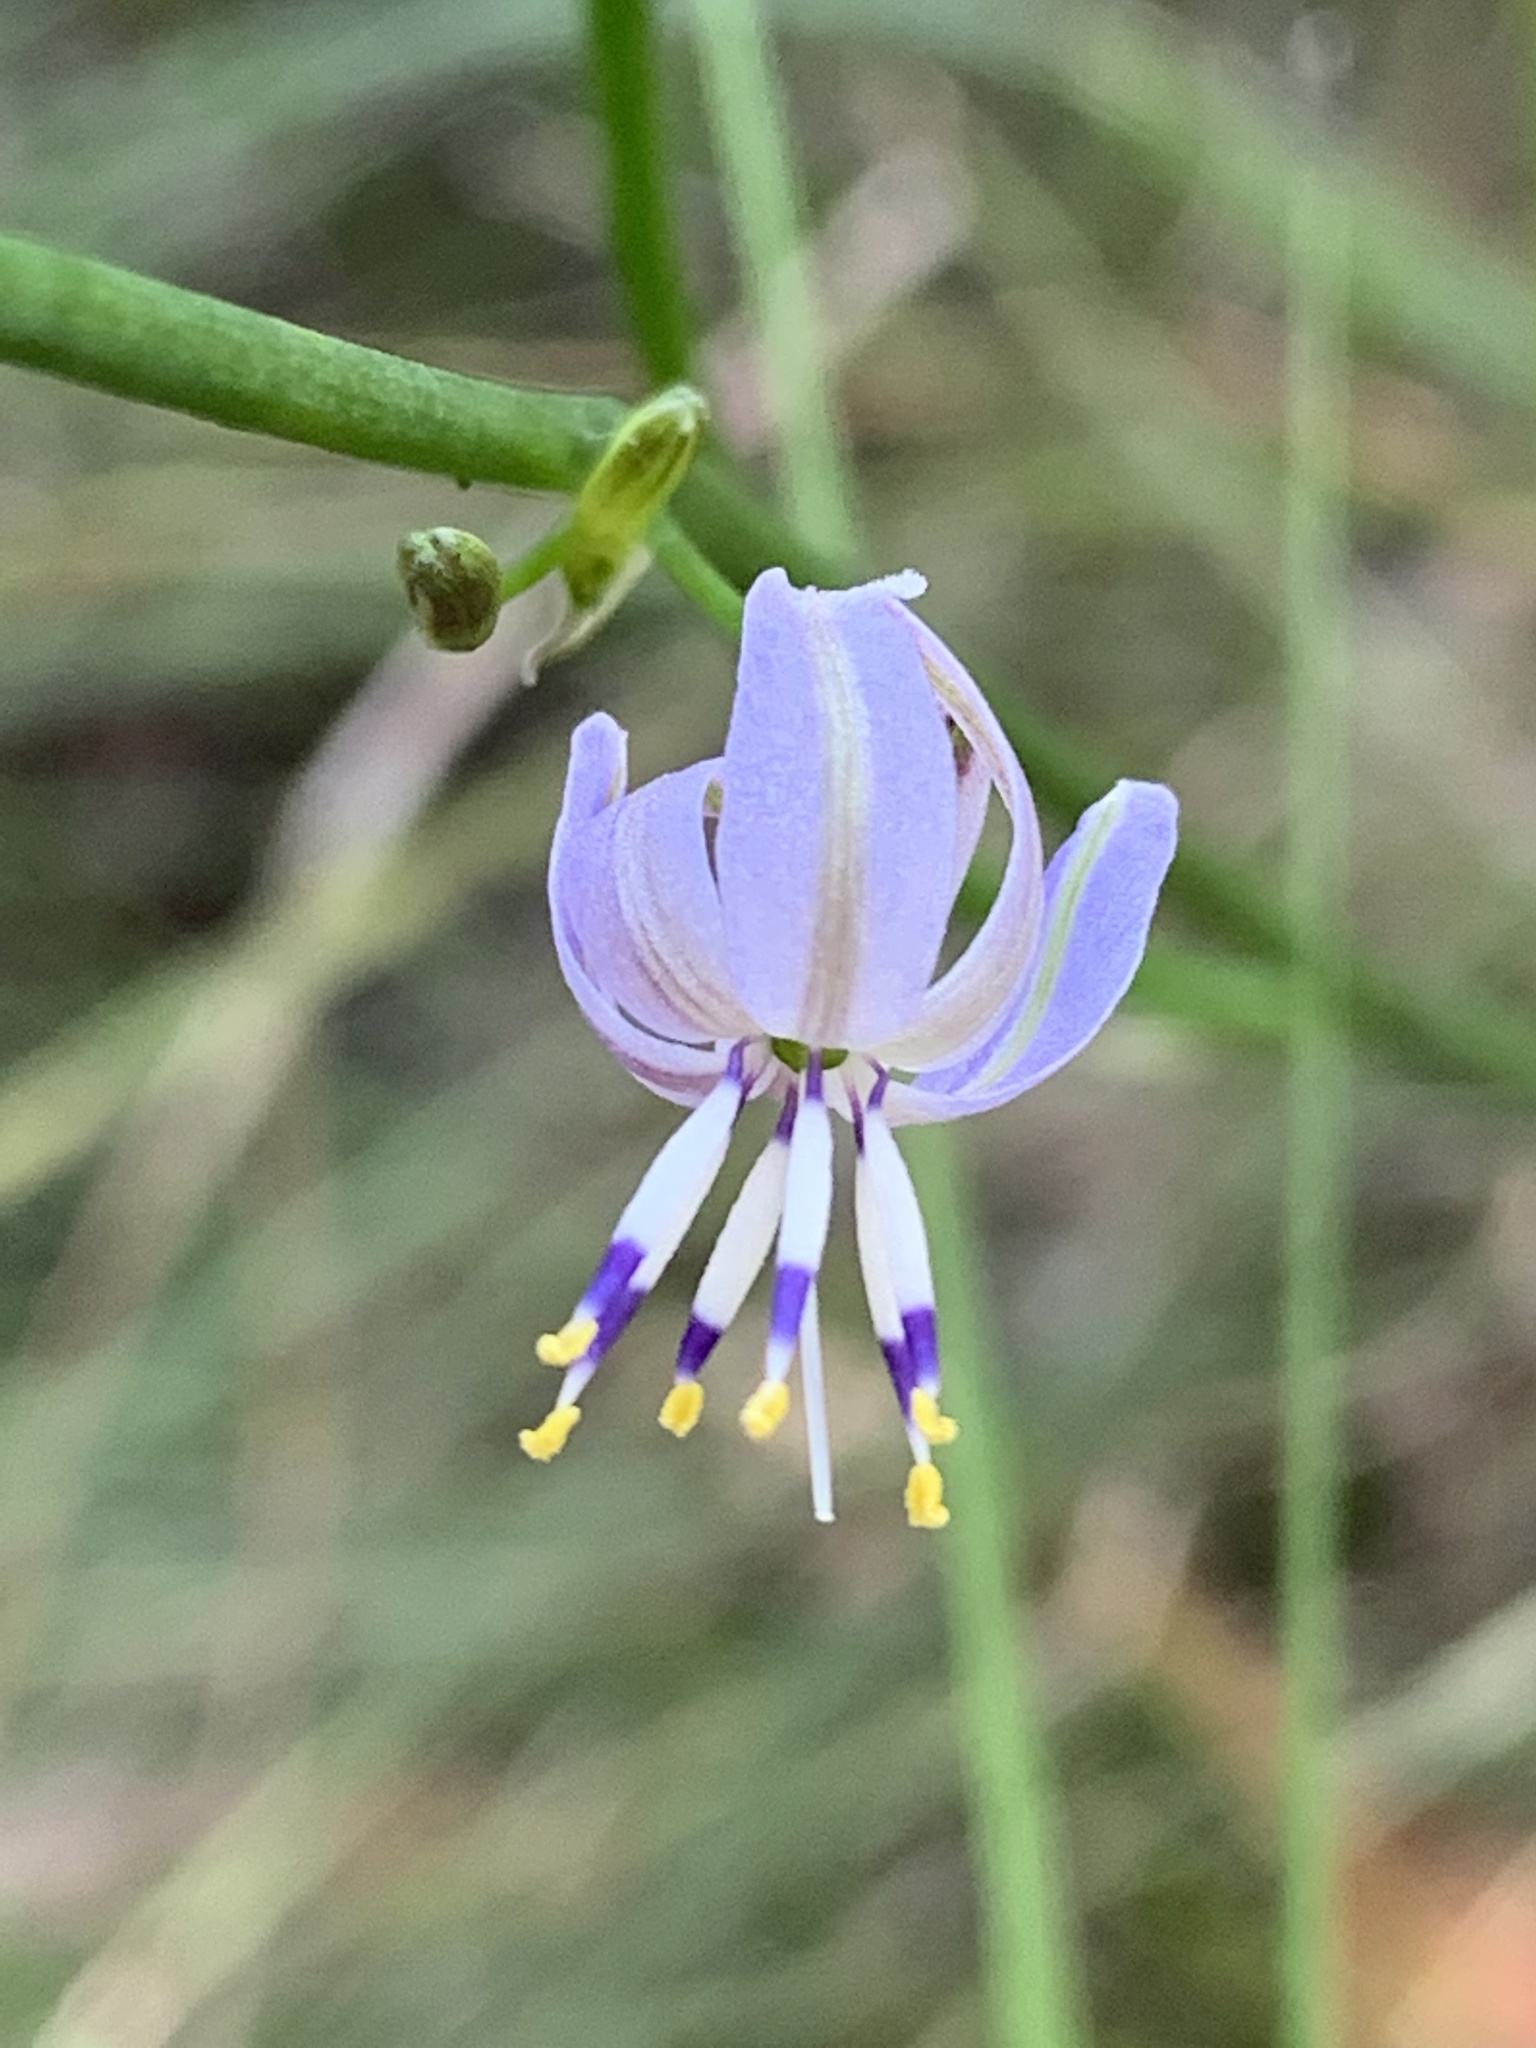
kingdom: Plantae
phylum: Tracheophyta
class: Liliopsida
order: Asparagales
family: Asphodelaceae
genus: Caesia
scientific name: Caesia parviflora
